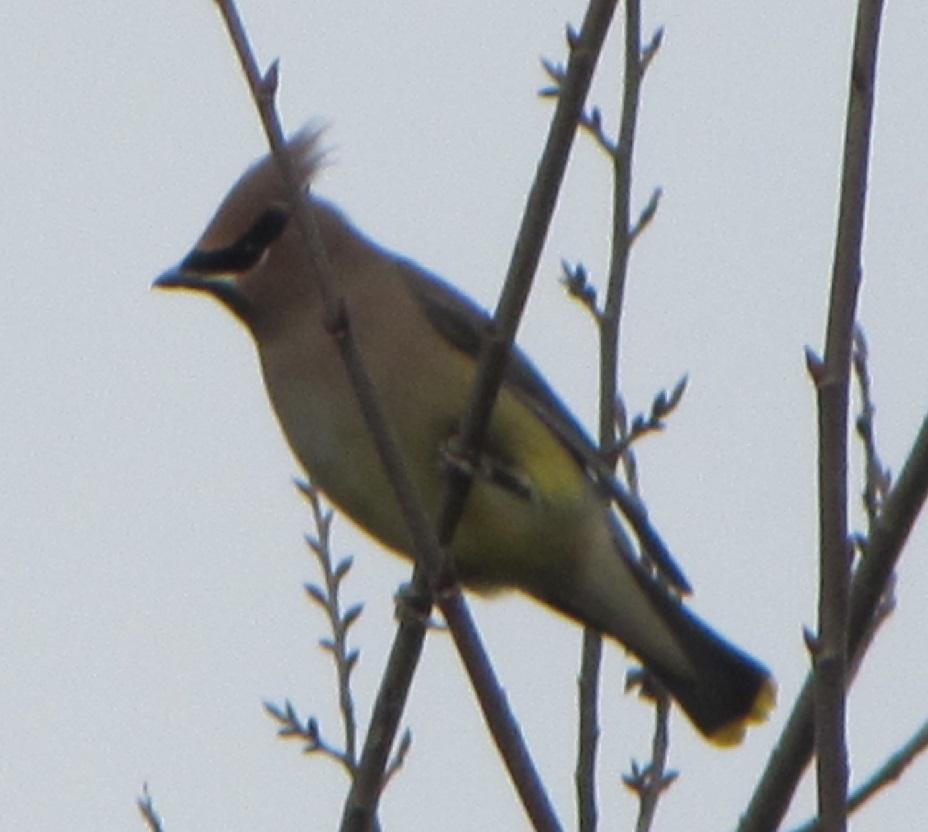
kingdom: Animalia
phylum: Chordata
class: Aves
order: Passeriformes
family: Bombycillidae
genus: Bombycilla
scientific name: Bombycilla cedrorum
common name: Cedar waxwing
